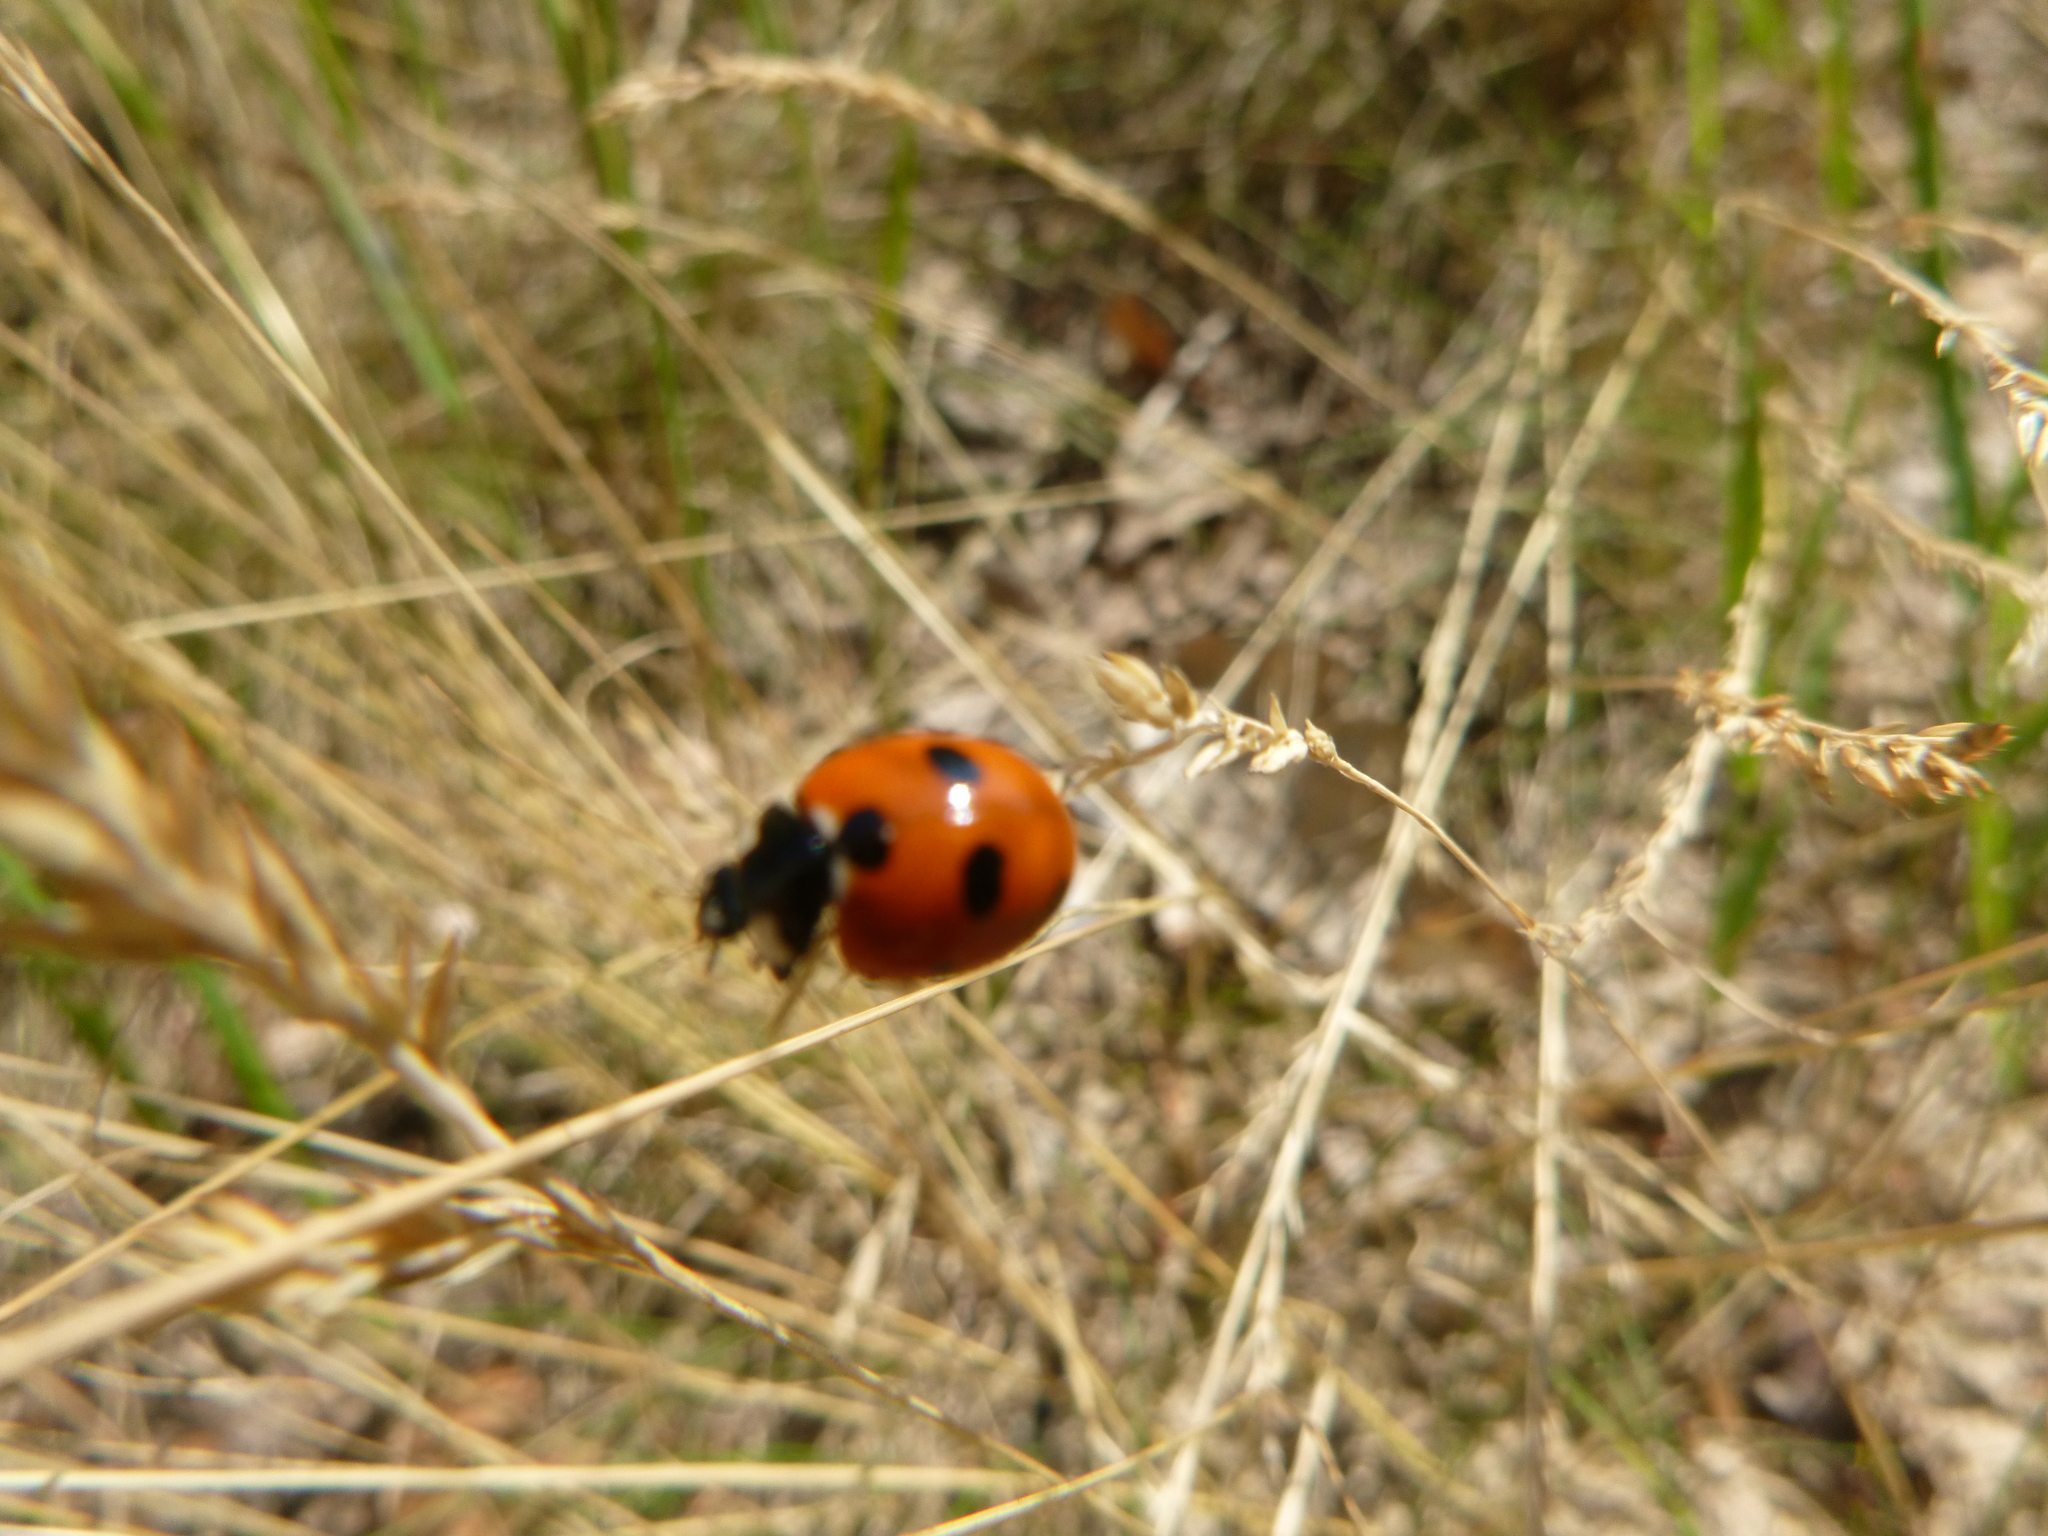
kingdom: Animalia
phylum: Arthropoda
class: Insecta
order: Coleoptera
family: Coccinellidae
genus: Coccinella
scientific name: Coccinella magnifica
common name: Scarce 7-spot ladybird
